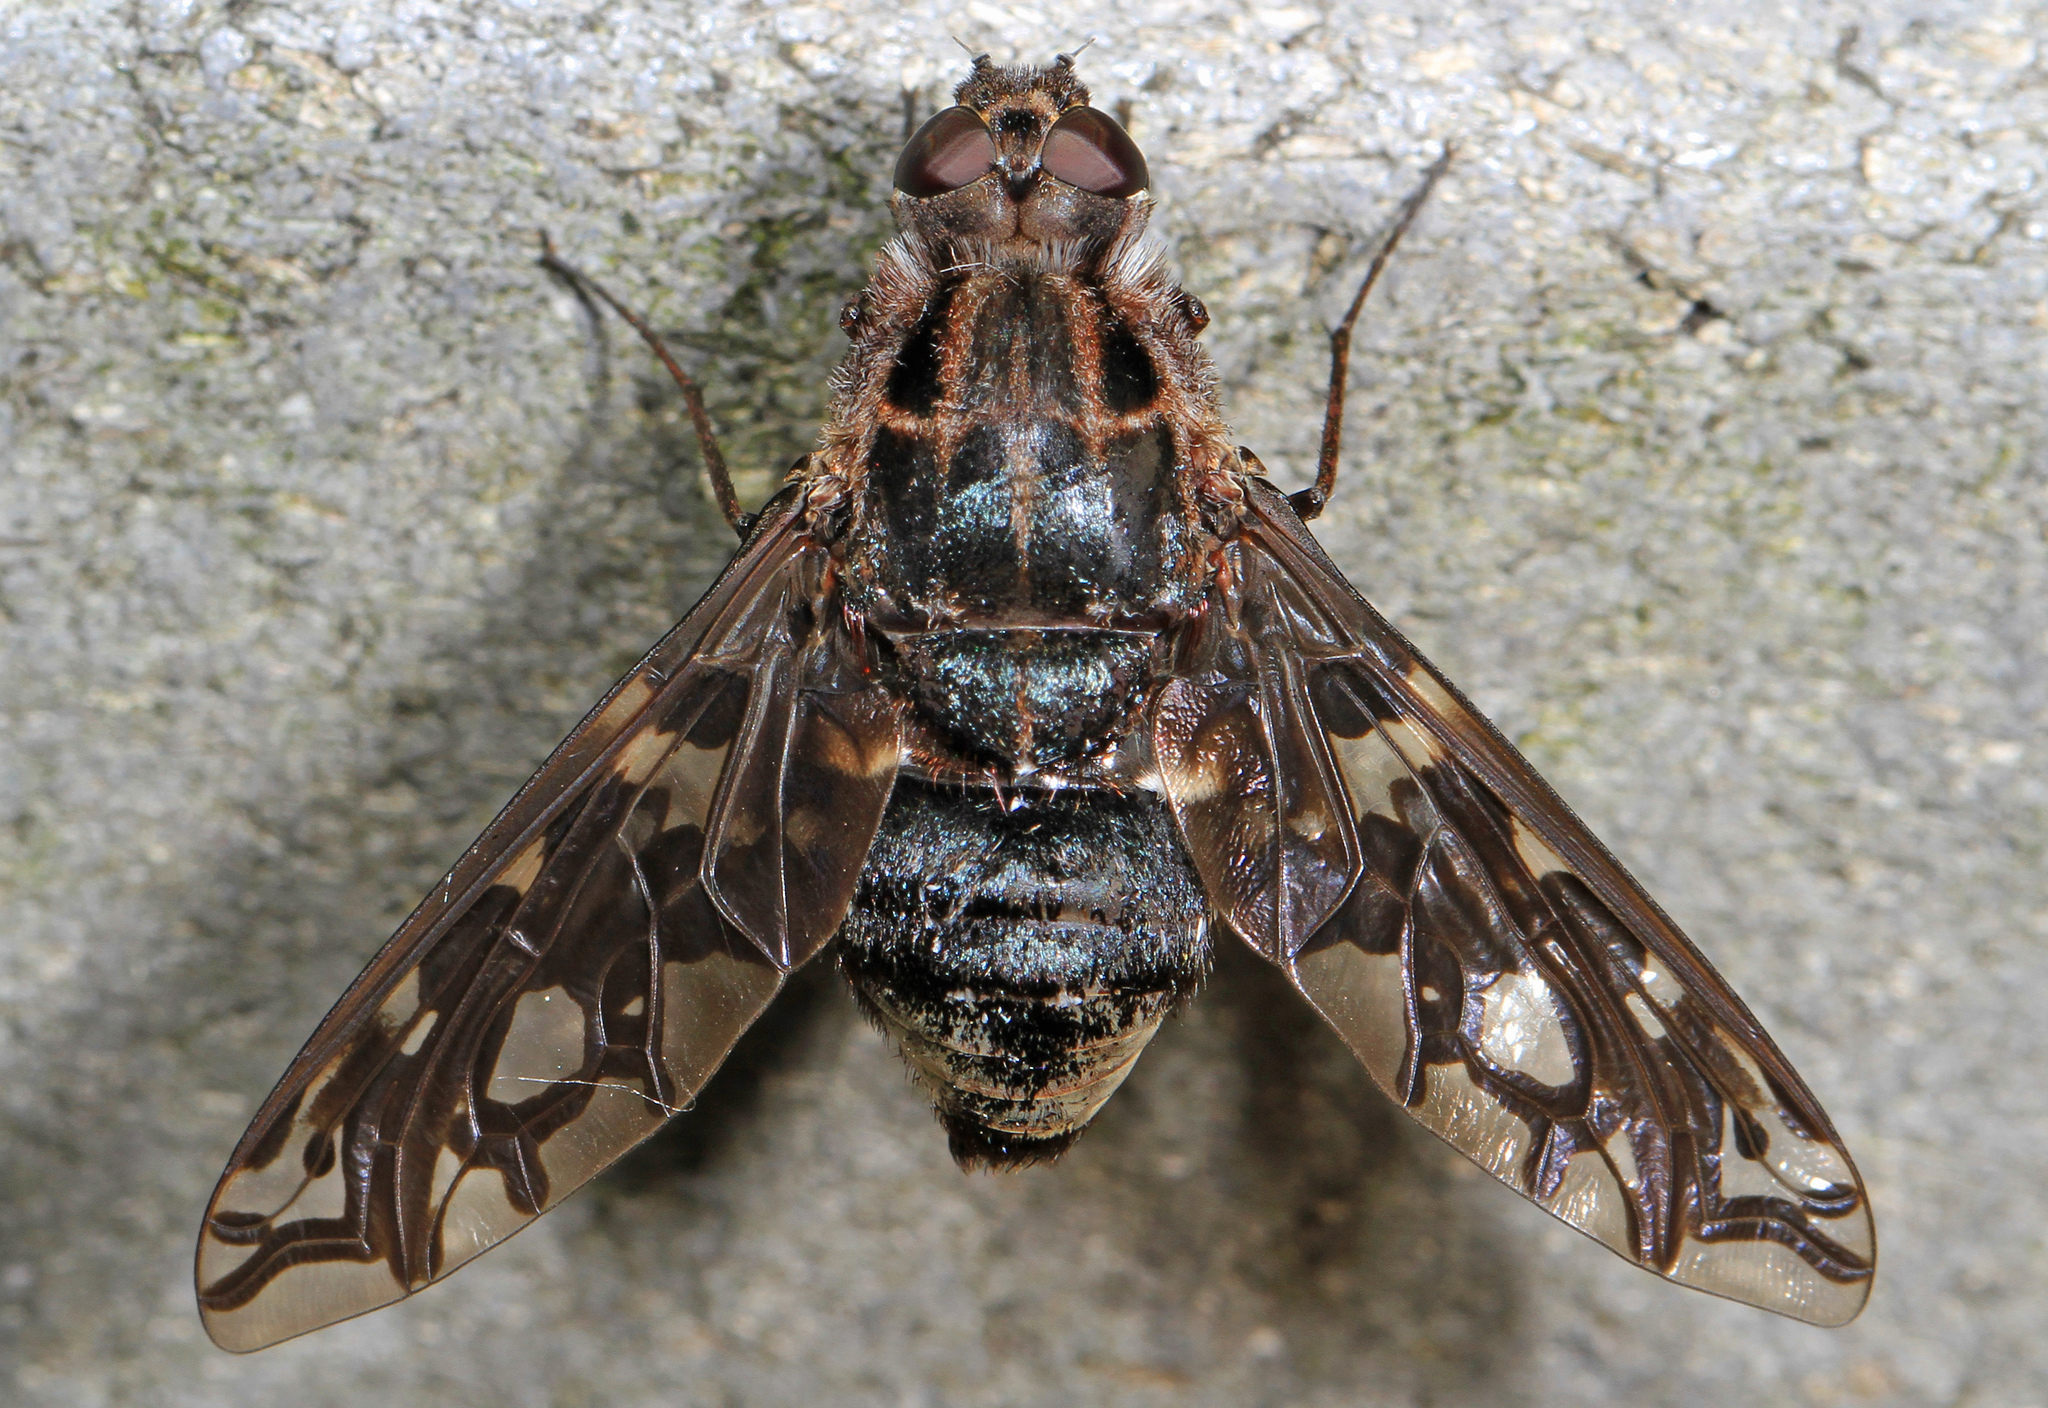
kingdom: Animalia
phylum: Arthropoda
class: Insecta
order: Diptera
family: Bombyliidae
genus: Xenox
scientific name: Xenox tigrinus
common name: Tiger bee fly
